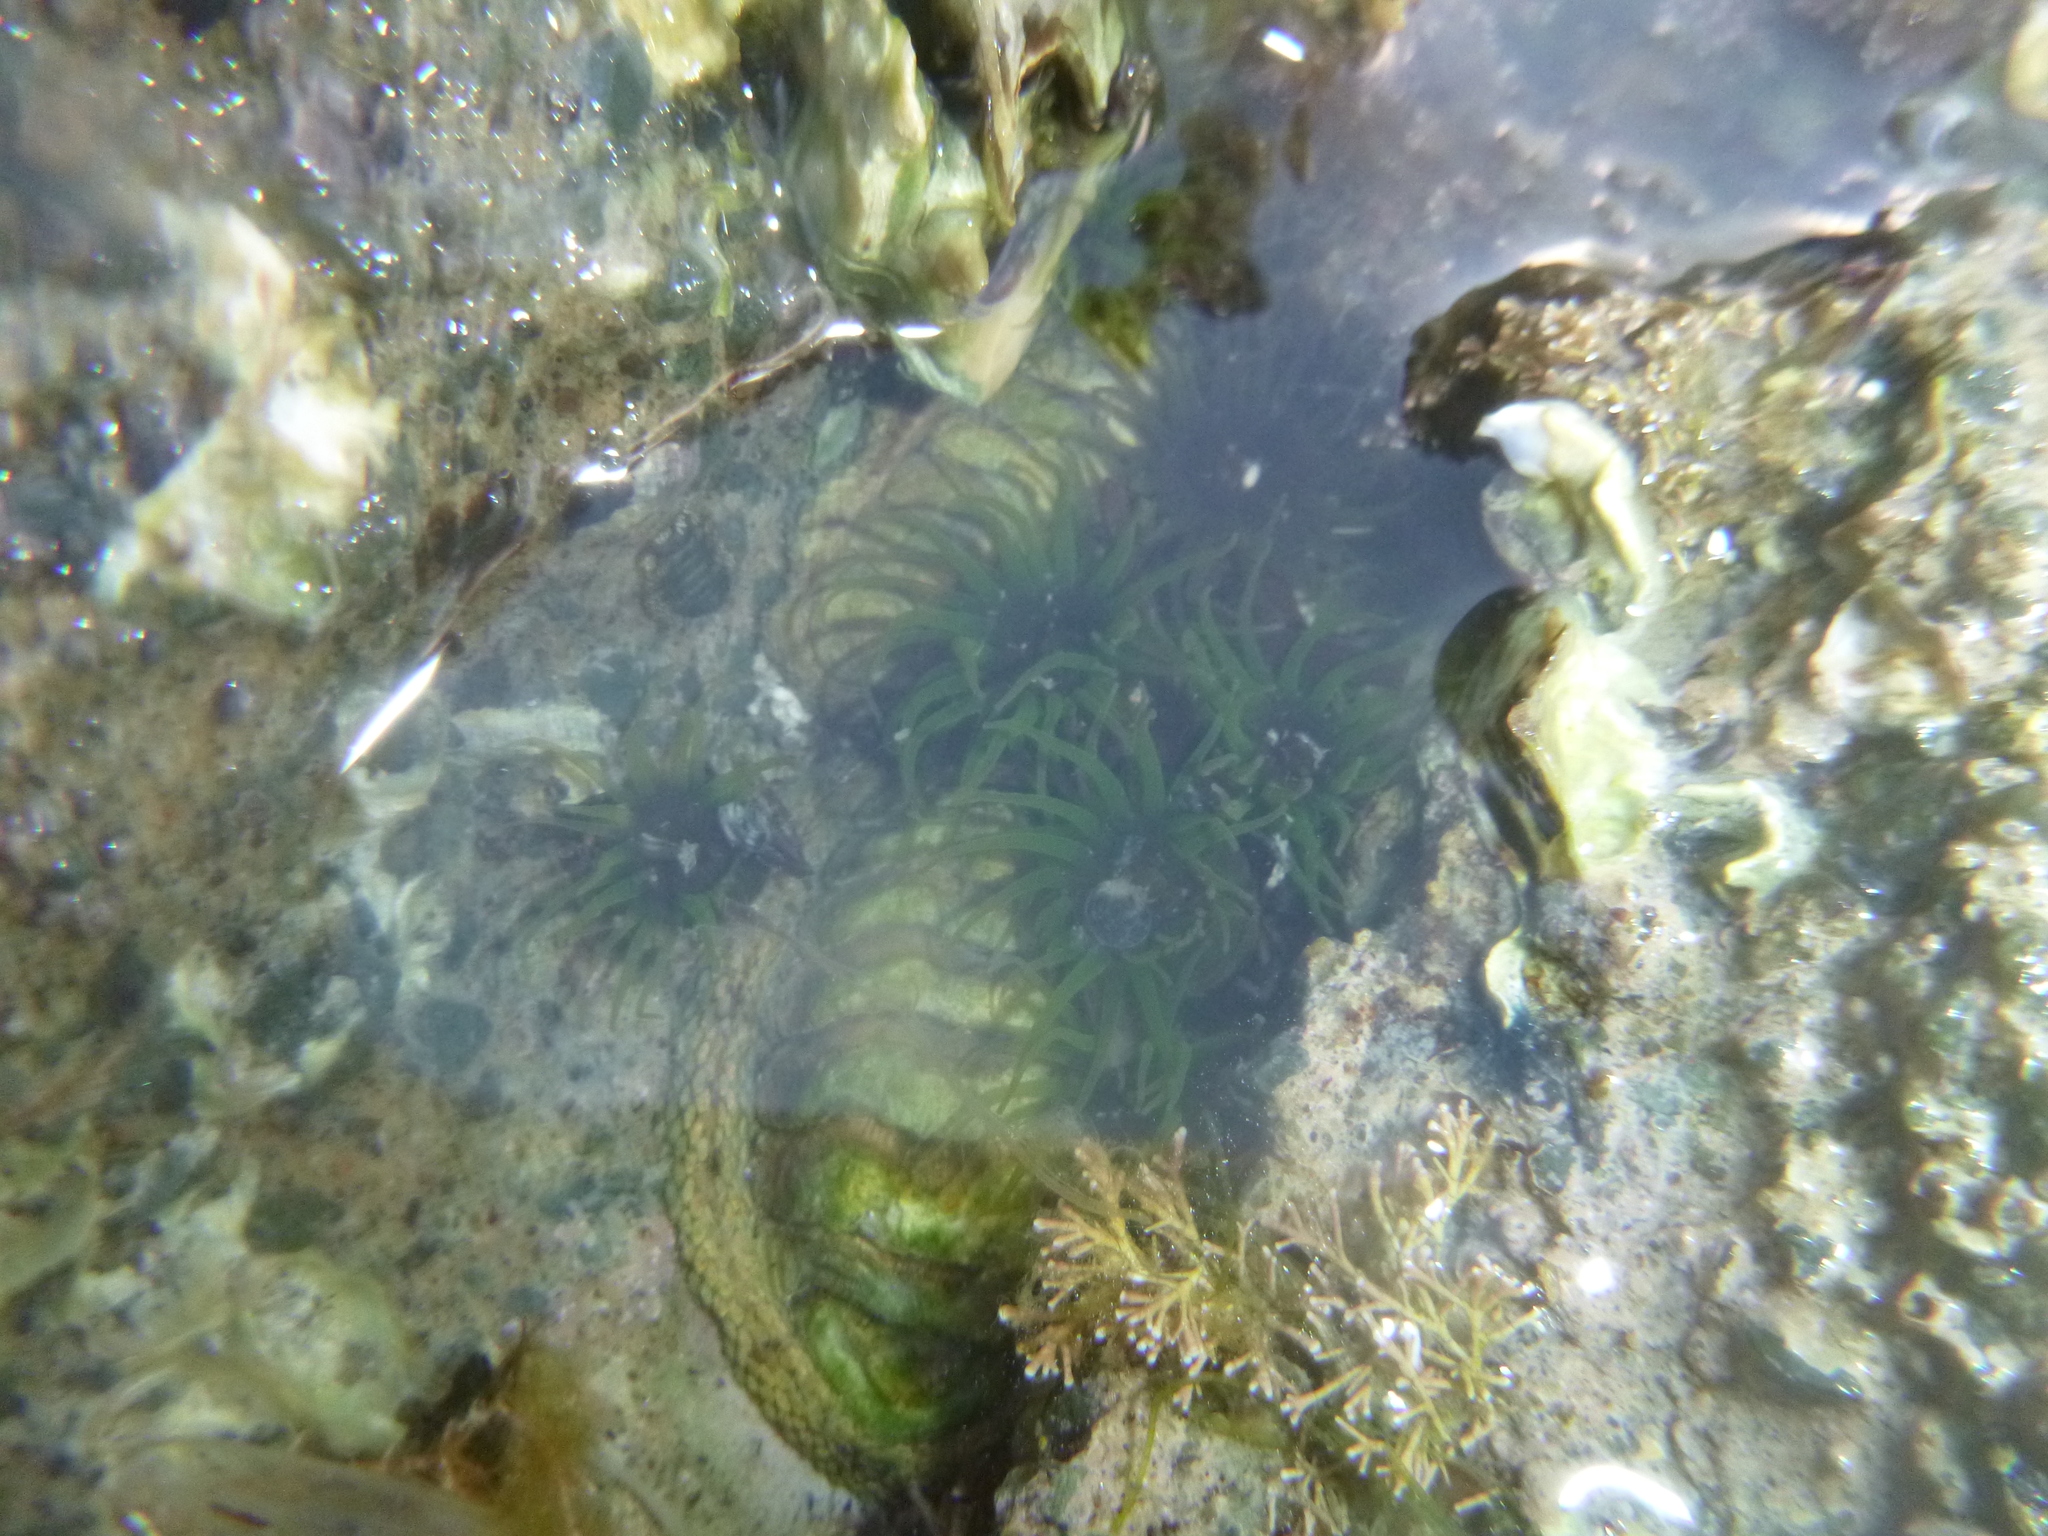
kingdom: Animalia
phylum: Cnidaria
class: Anthozoa
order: Actiniaria
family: Actiniidae
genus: Aulactinia
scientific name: Aulactinia veratra
